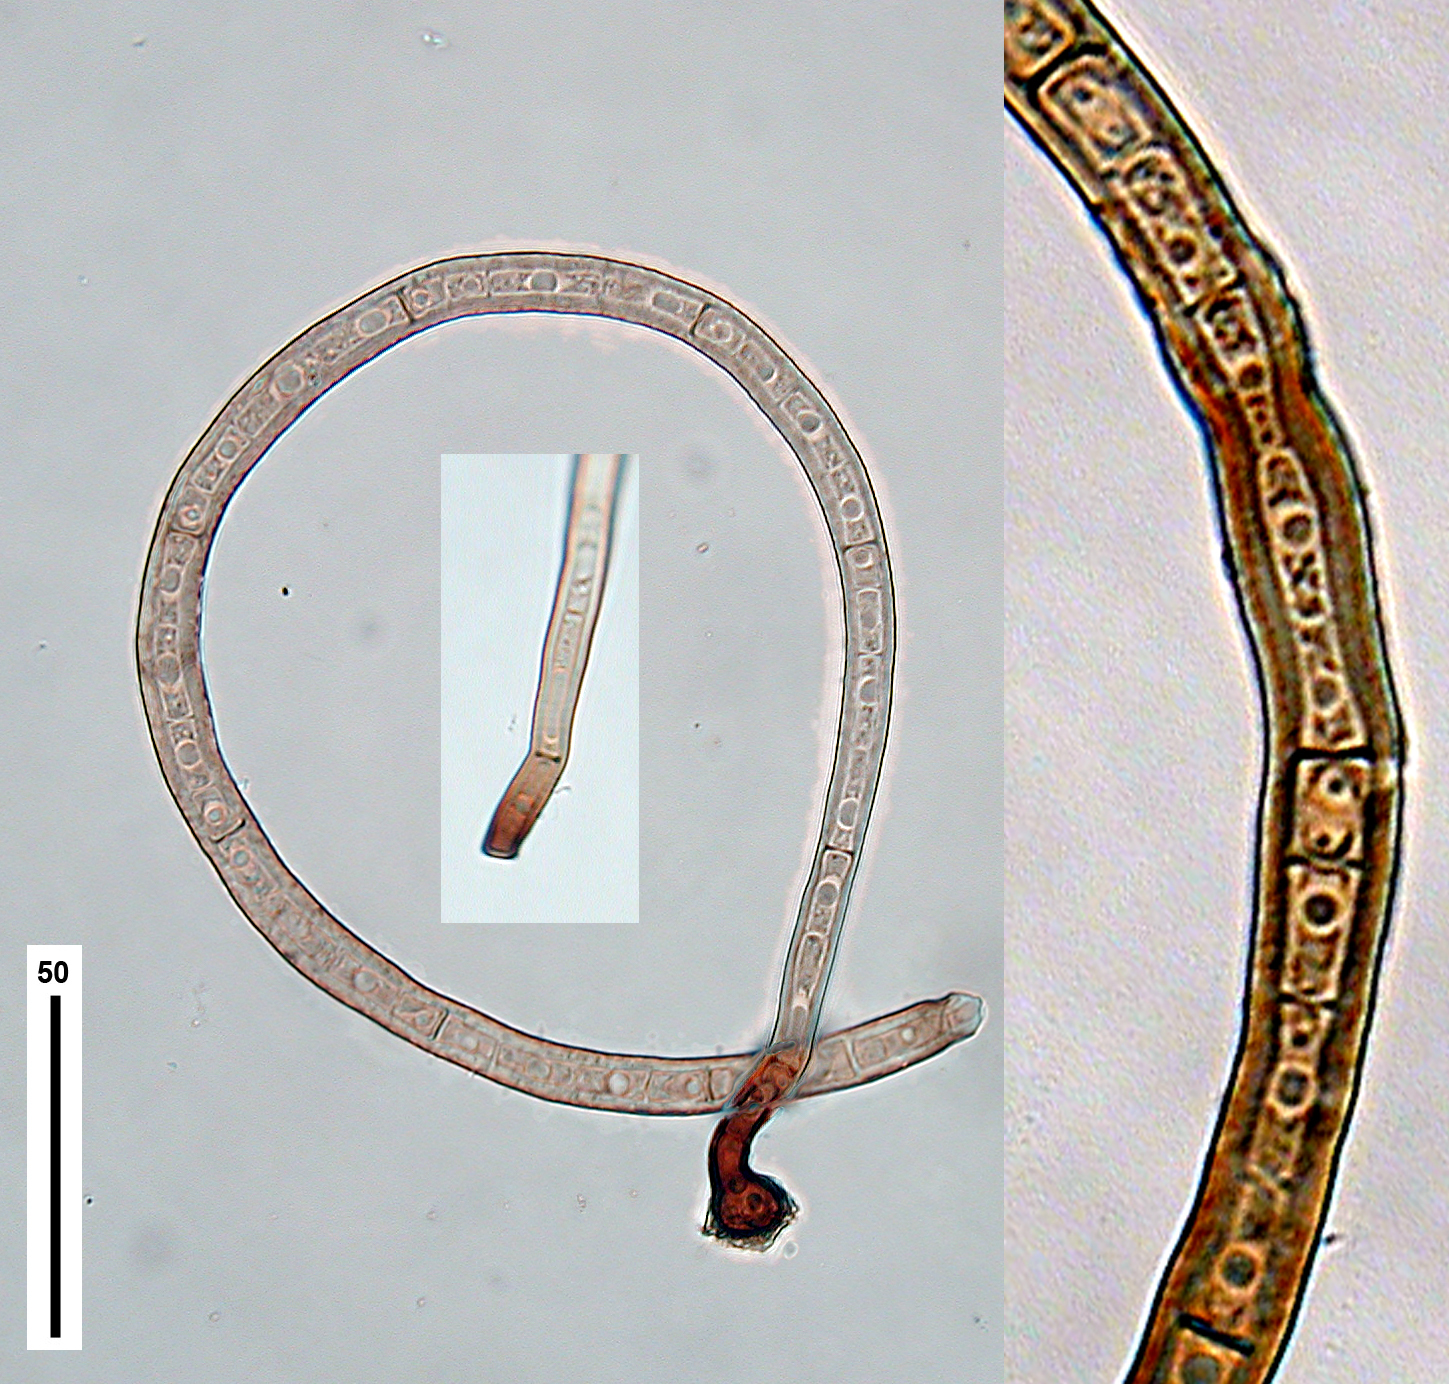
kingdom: Fungi
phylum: Ascomycota
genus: Inesiosporium
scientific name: Inesiosporium mauiense
